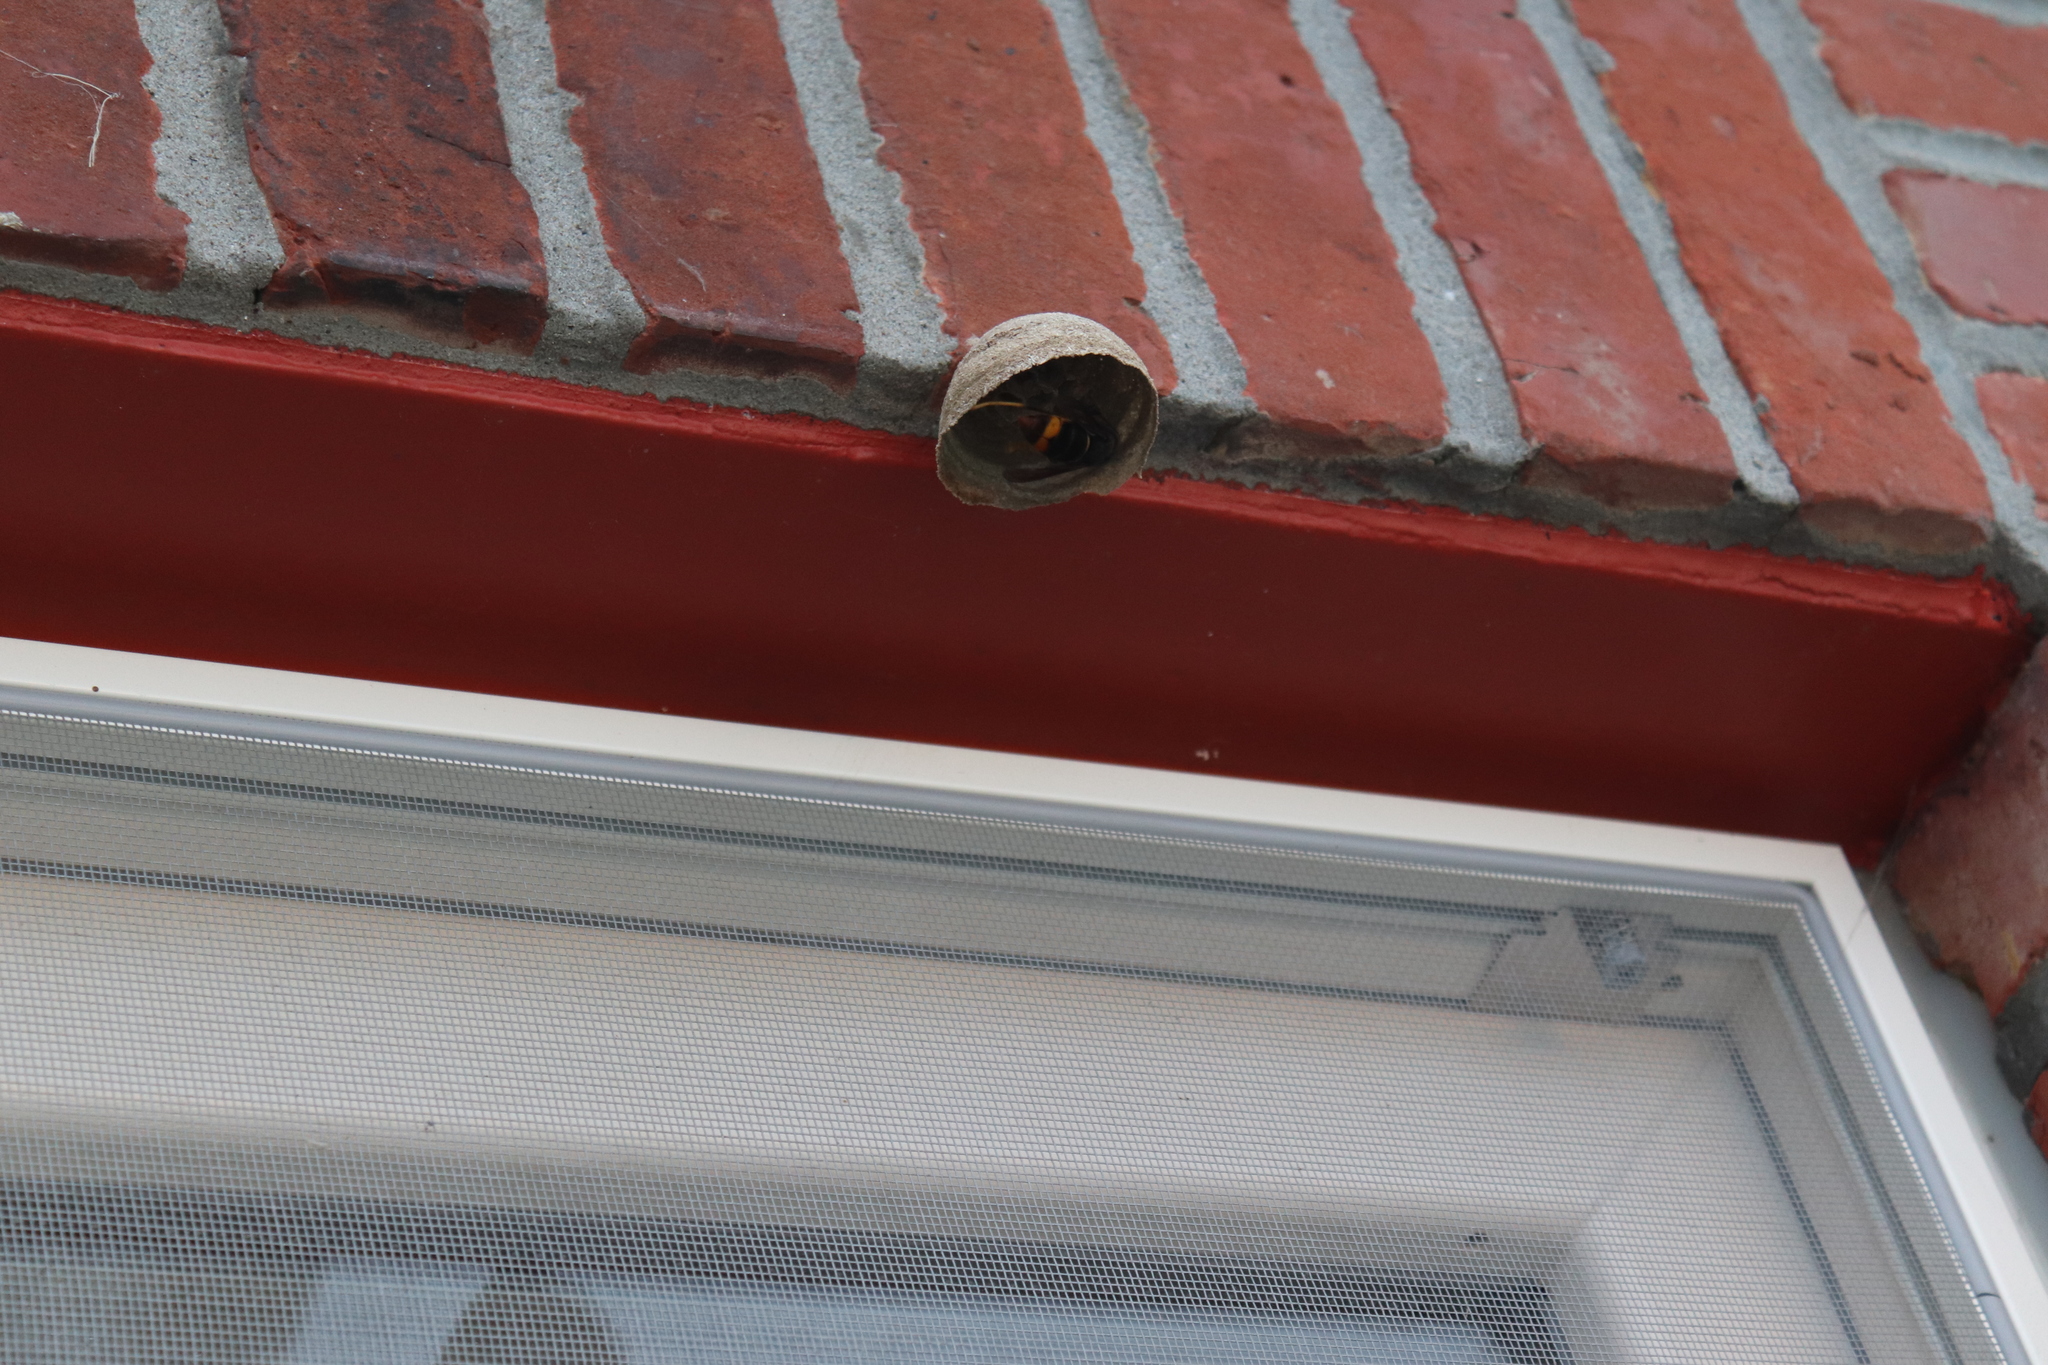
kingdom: Animalia
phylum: Arthropoda
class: Insecta
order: Hymenoptera
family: Vespidae
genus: Vespa
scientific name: Vespa velutina
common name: Asian hornet
